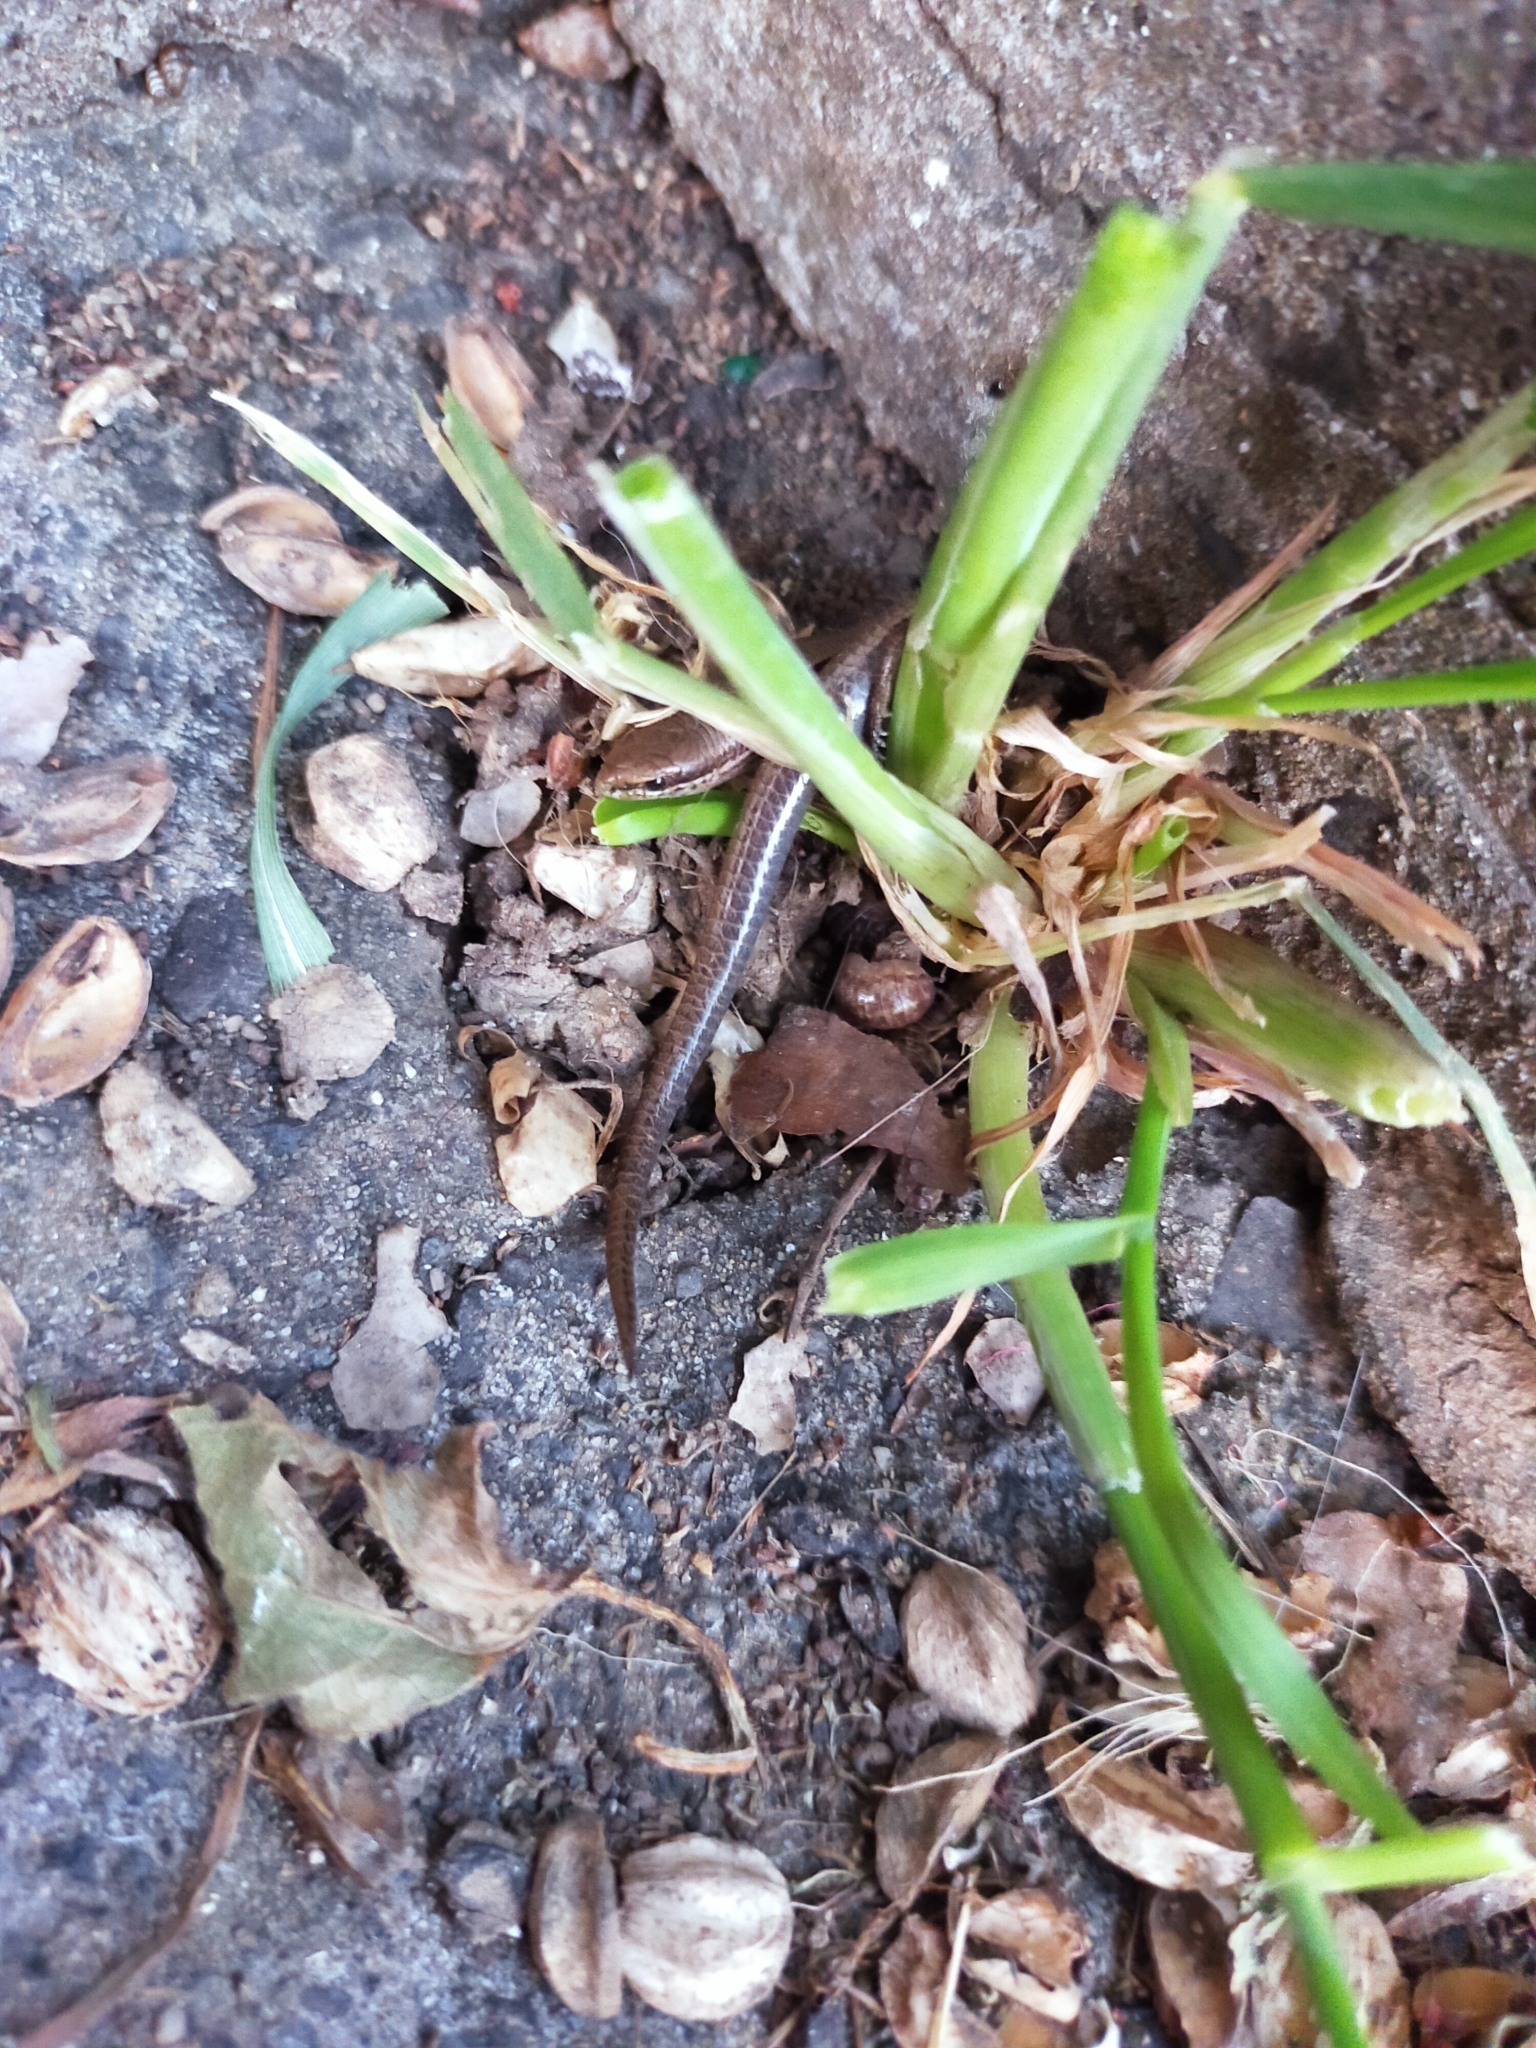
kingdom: Animalia
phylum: Chordata
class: Squamata
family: Scincidae
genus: Ablepharus
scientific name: Ablepharus kitaibelii
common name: Juniper skink
